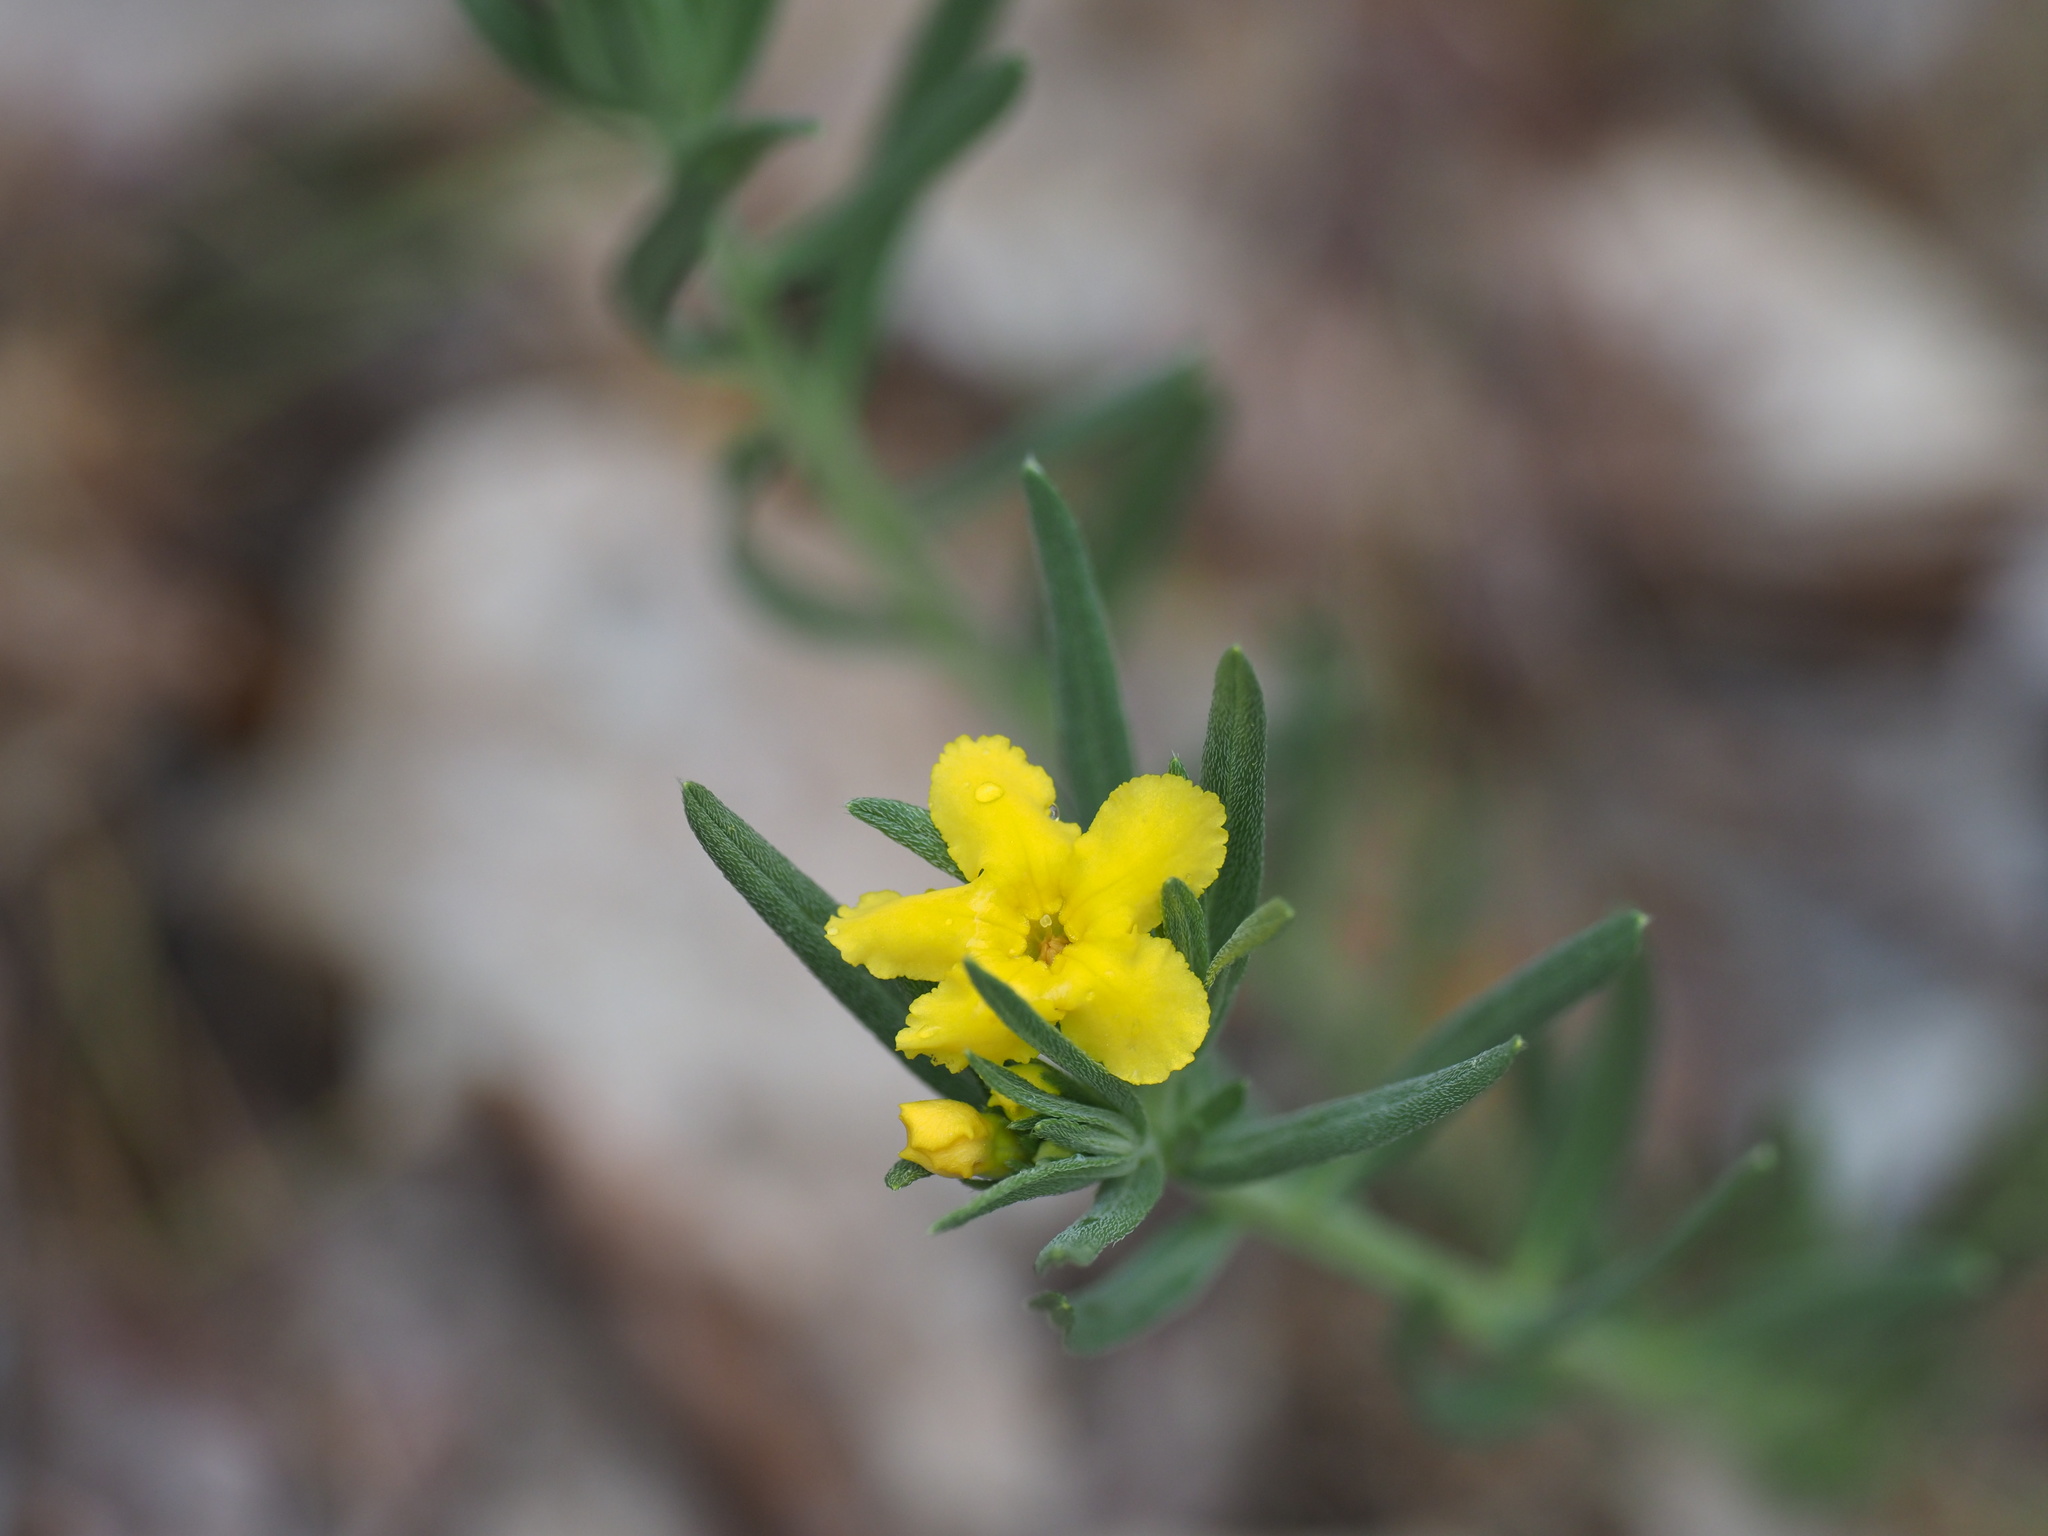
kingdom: Plantae
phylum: Tracheophyta
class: Magnoliopsida
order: Boraginales
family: Boraginaceae
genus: Lithospermum
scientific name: Lithospermum incisum
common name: Fringed gromwell
